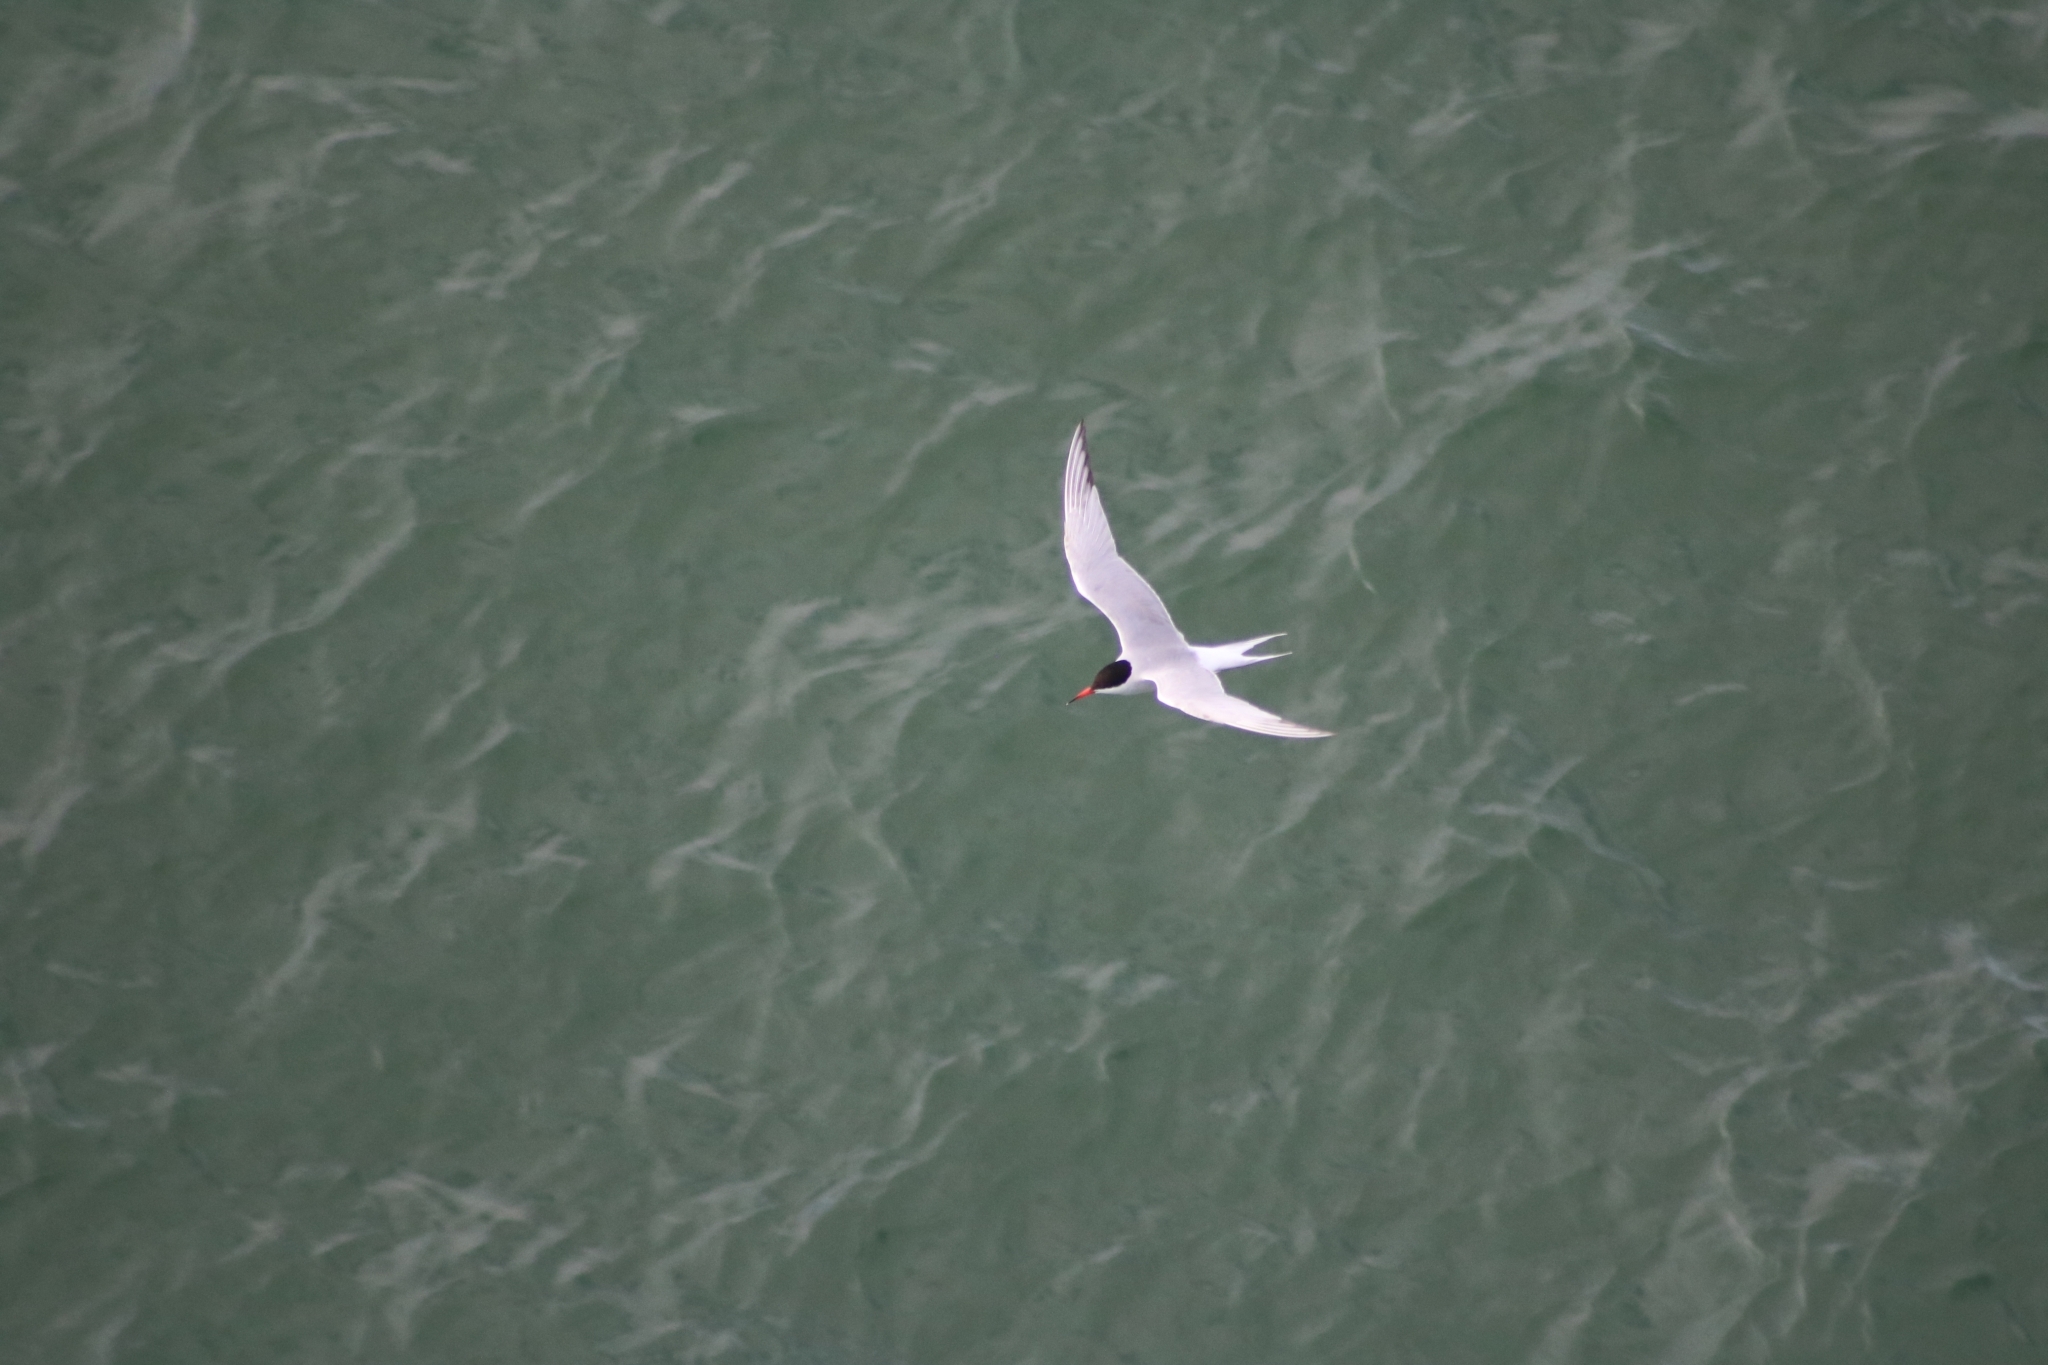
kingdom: Animalia
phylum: Chordata
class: Aves
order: Charadriiformes
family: Laridae
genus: Sterna
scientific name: Sterna hirundo
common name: Common tern
